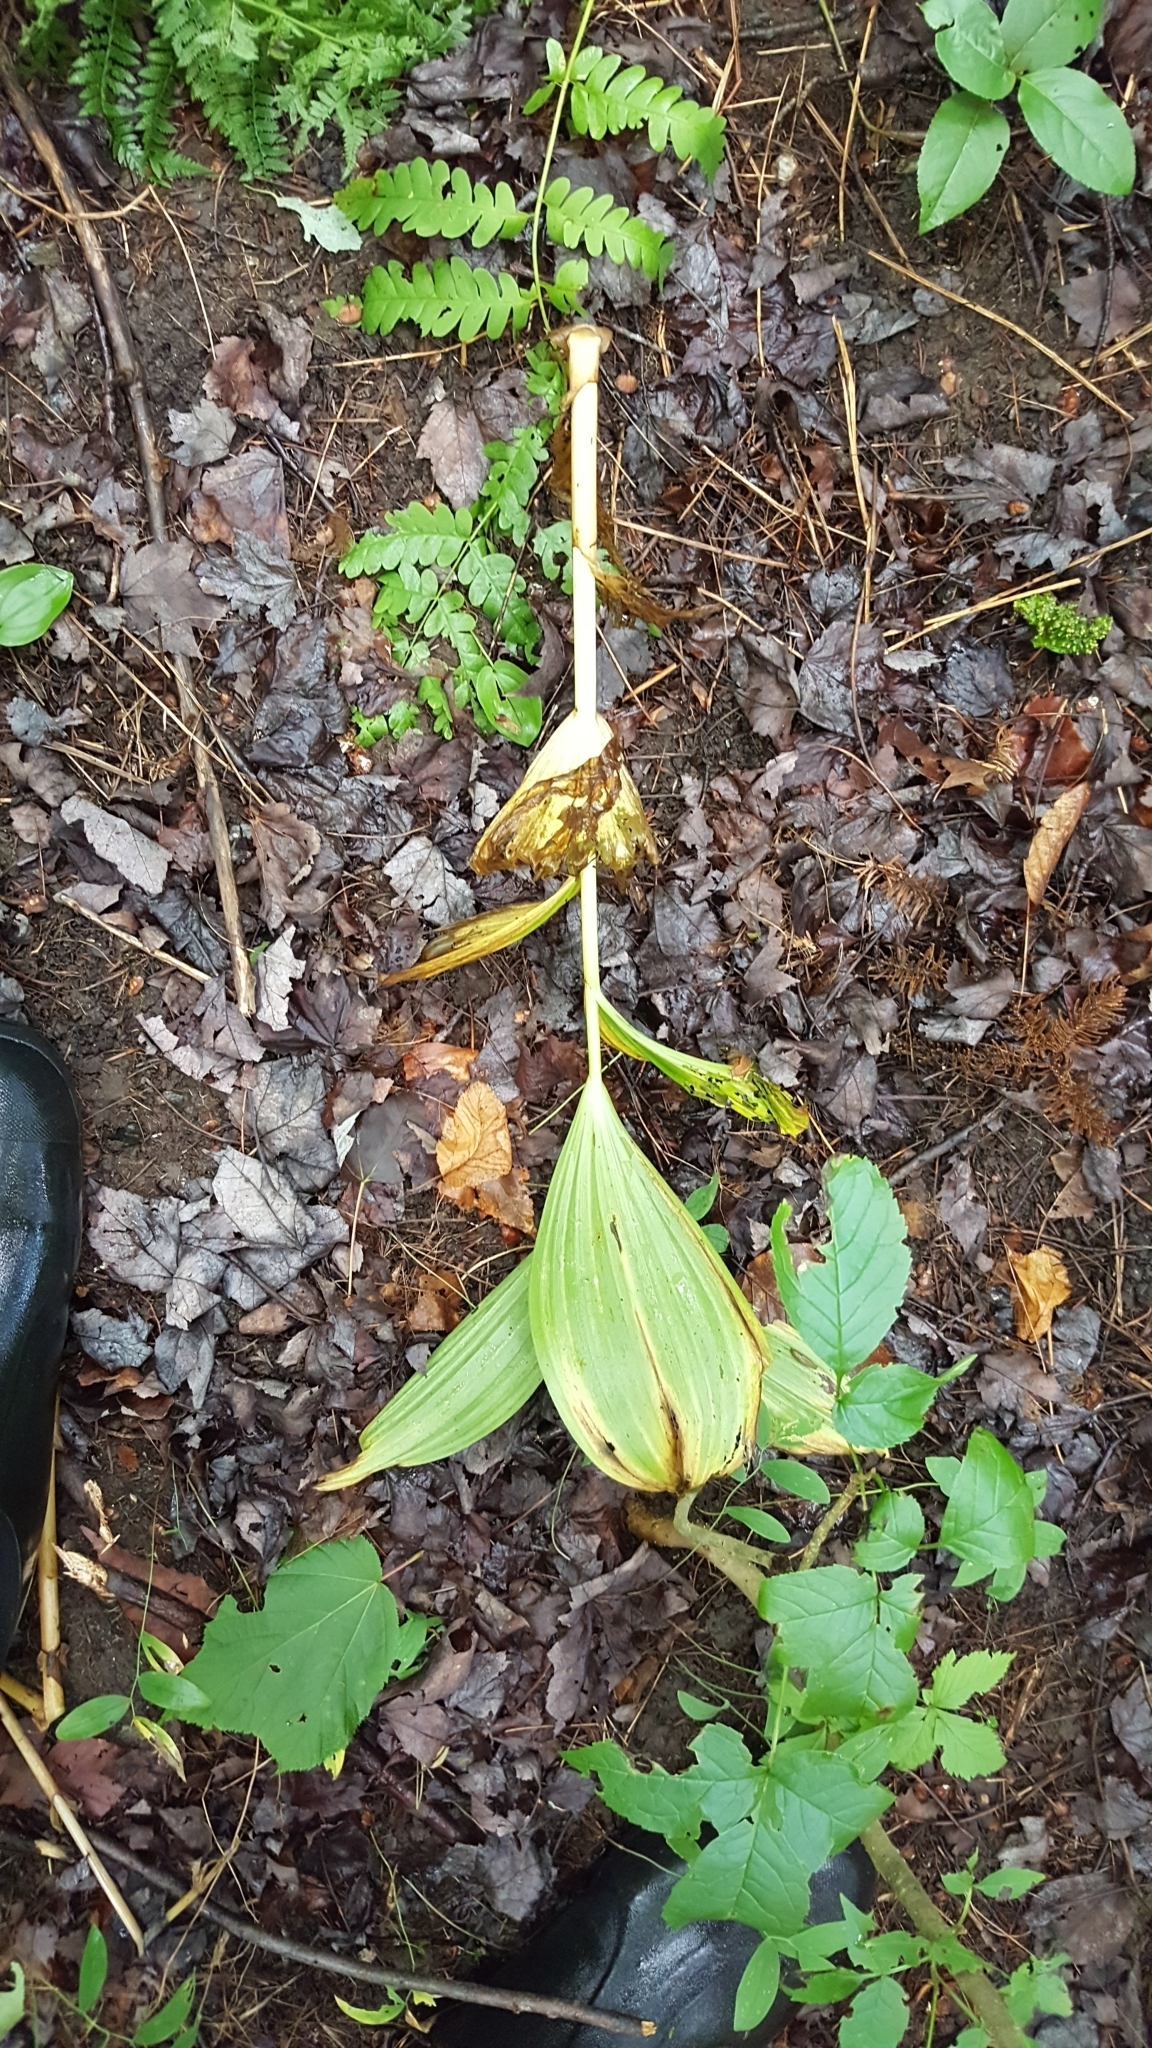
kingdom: Plantae
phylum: Tracheophyta
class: Liliopsida
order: Liliales
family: Melanthiaceae
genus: Veratrum
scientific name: Veratrum viride
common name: American false hellebore
